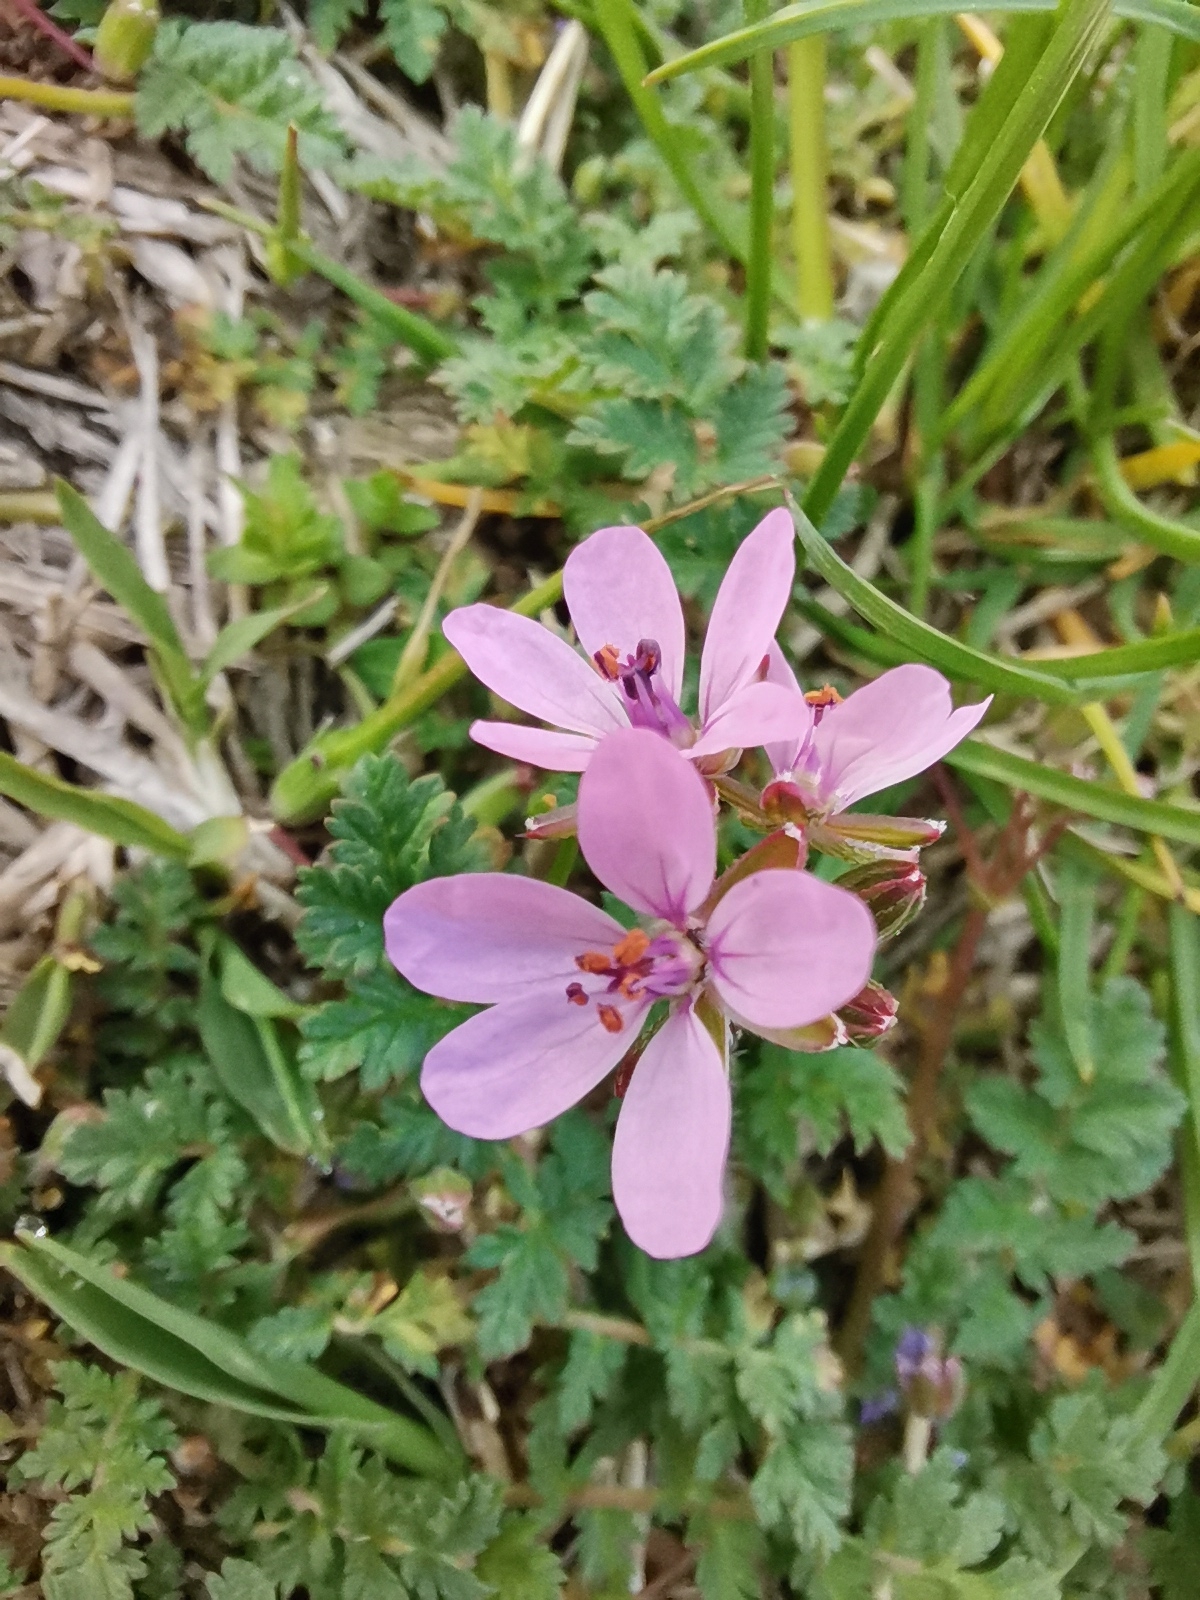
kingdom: Plantae
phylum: Tracheophyta
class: Magnoliopsida
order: Geraniales
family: Geraniaceae
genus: Erodium
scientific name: Erodium cicutarium
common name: Common stork's-bill
